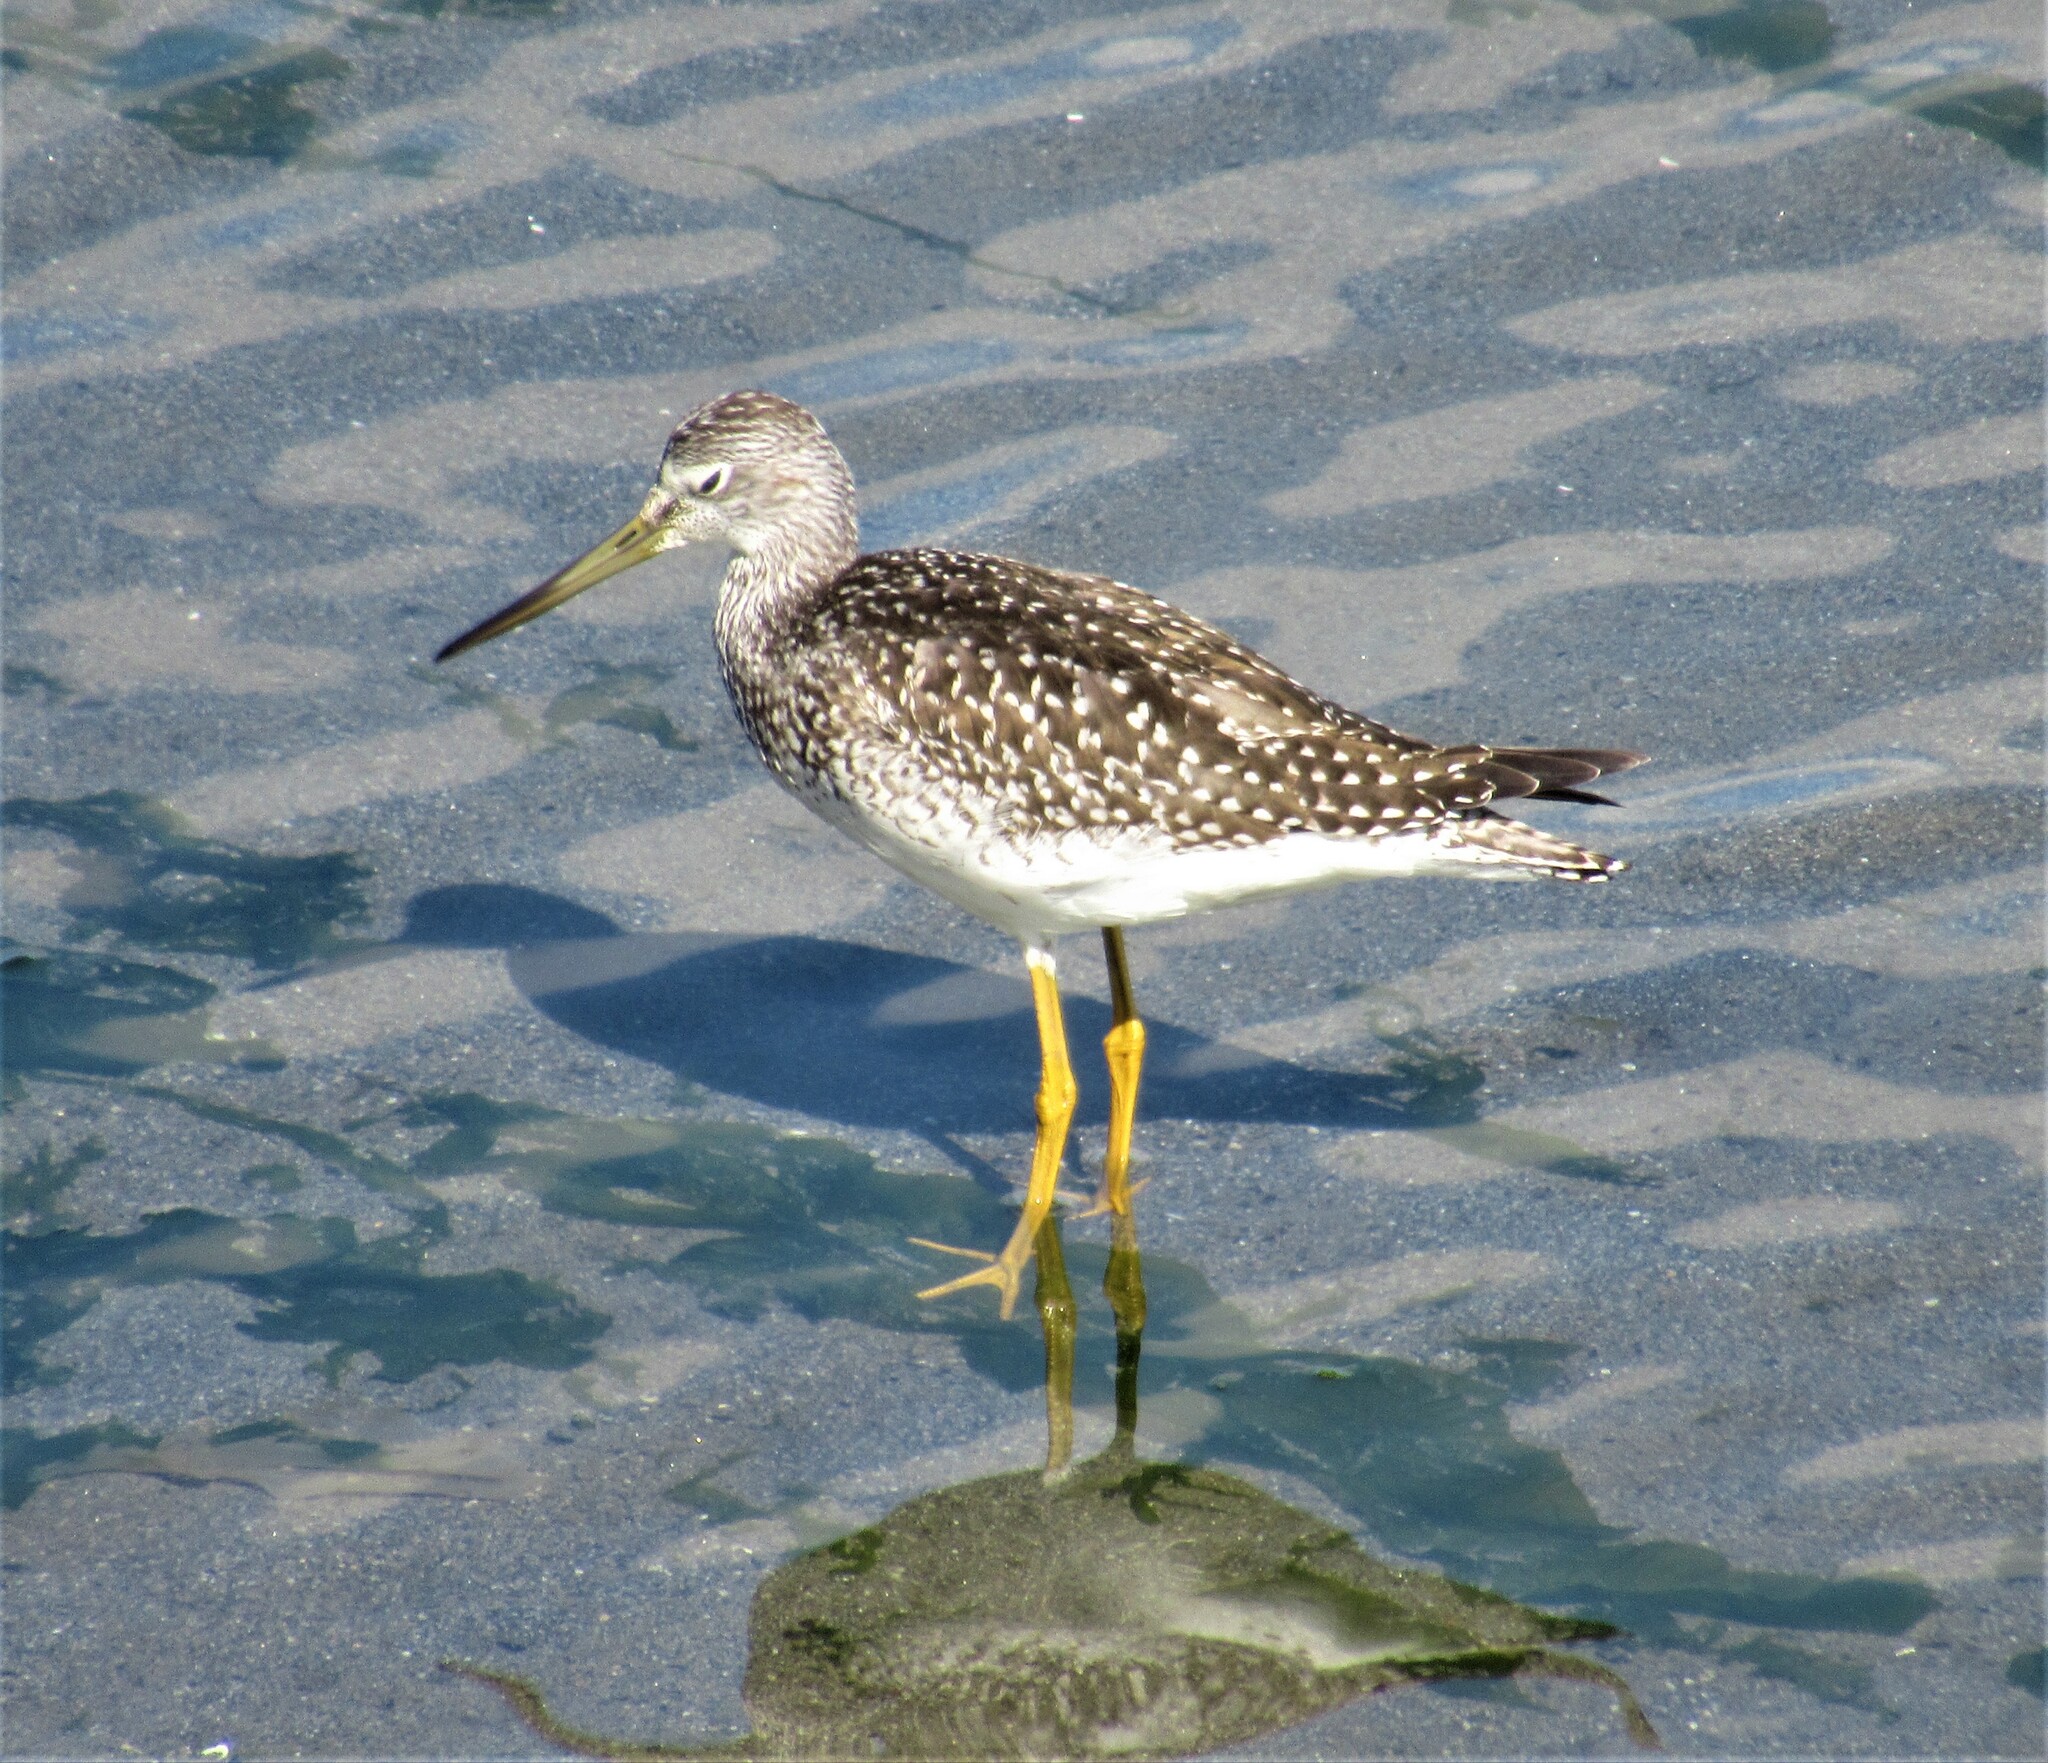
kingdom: Animalia
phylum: Chordata
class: Aves
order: Charadriiformes
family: Scolopacidae
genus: Tringa
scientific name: Tringa melanoleuca
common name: Greater yellowlegs
